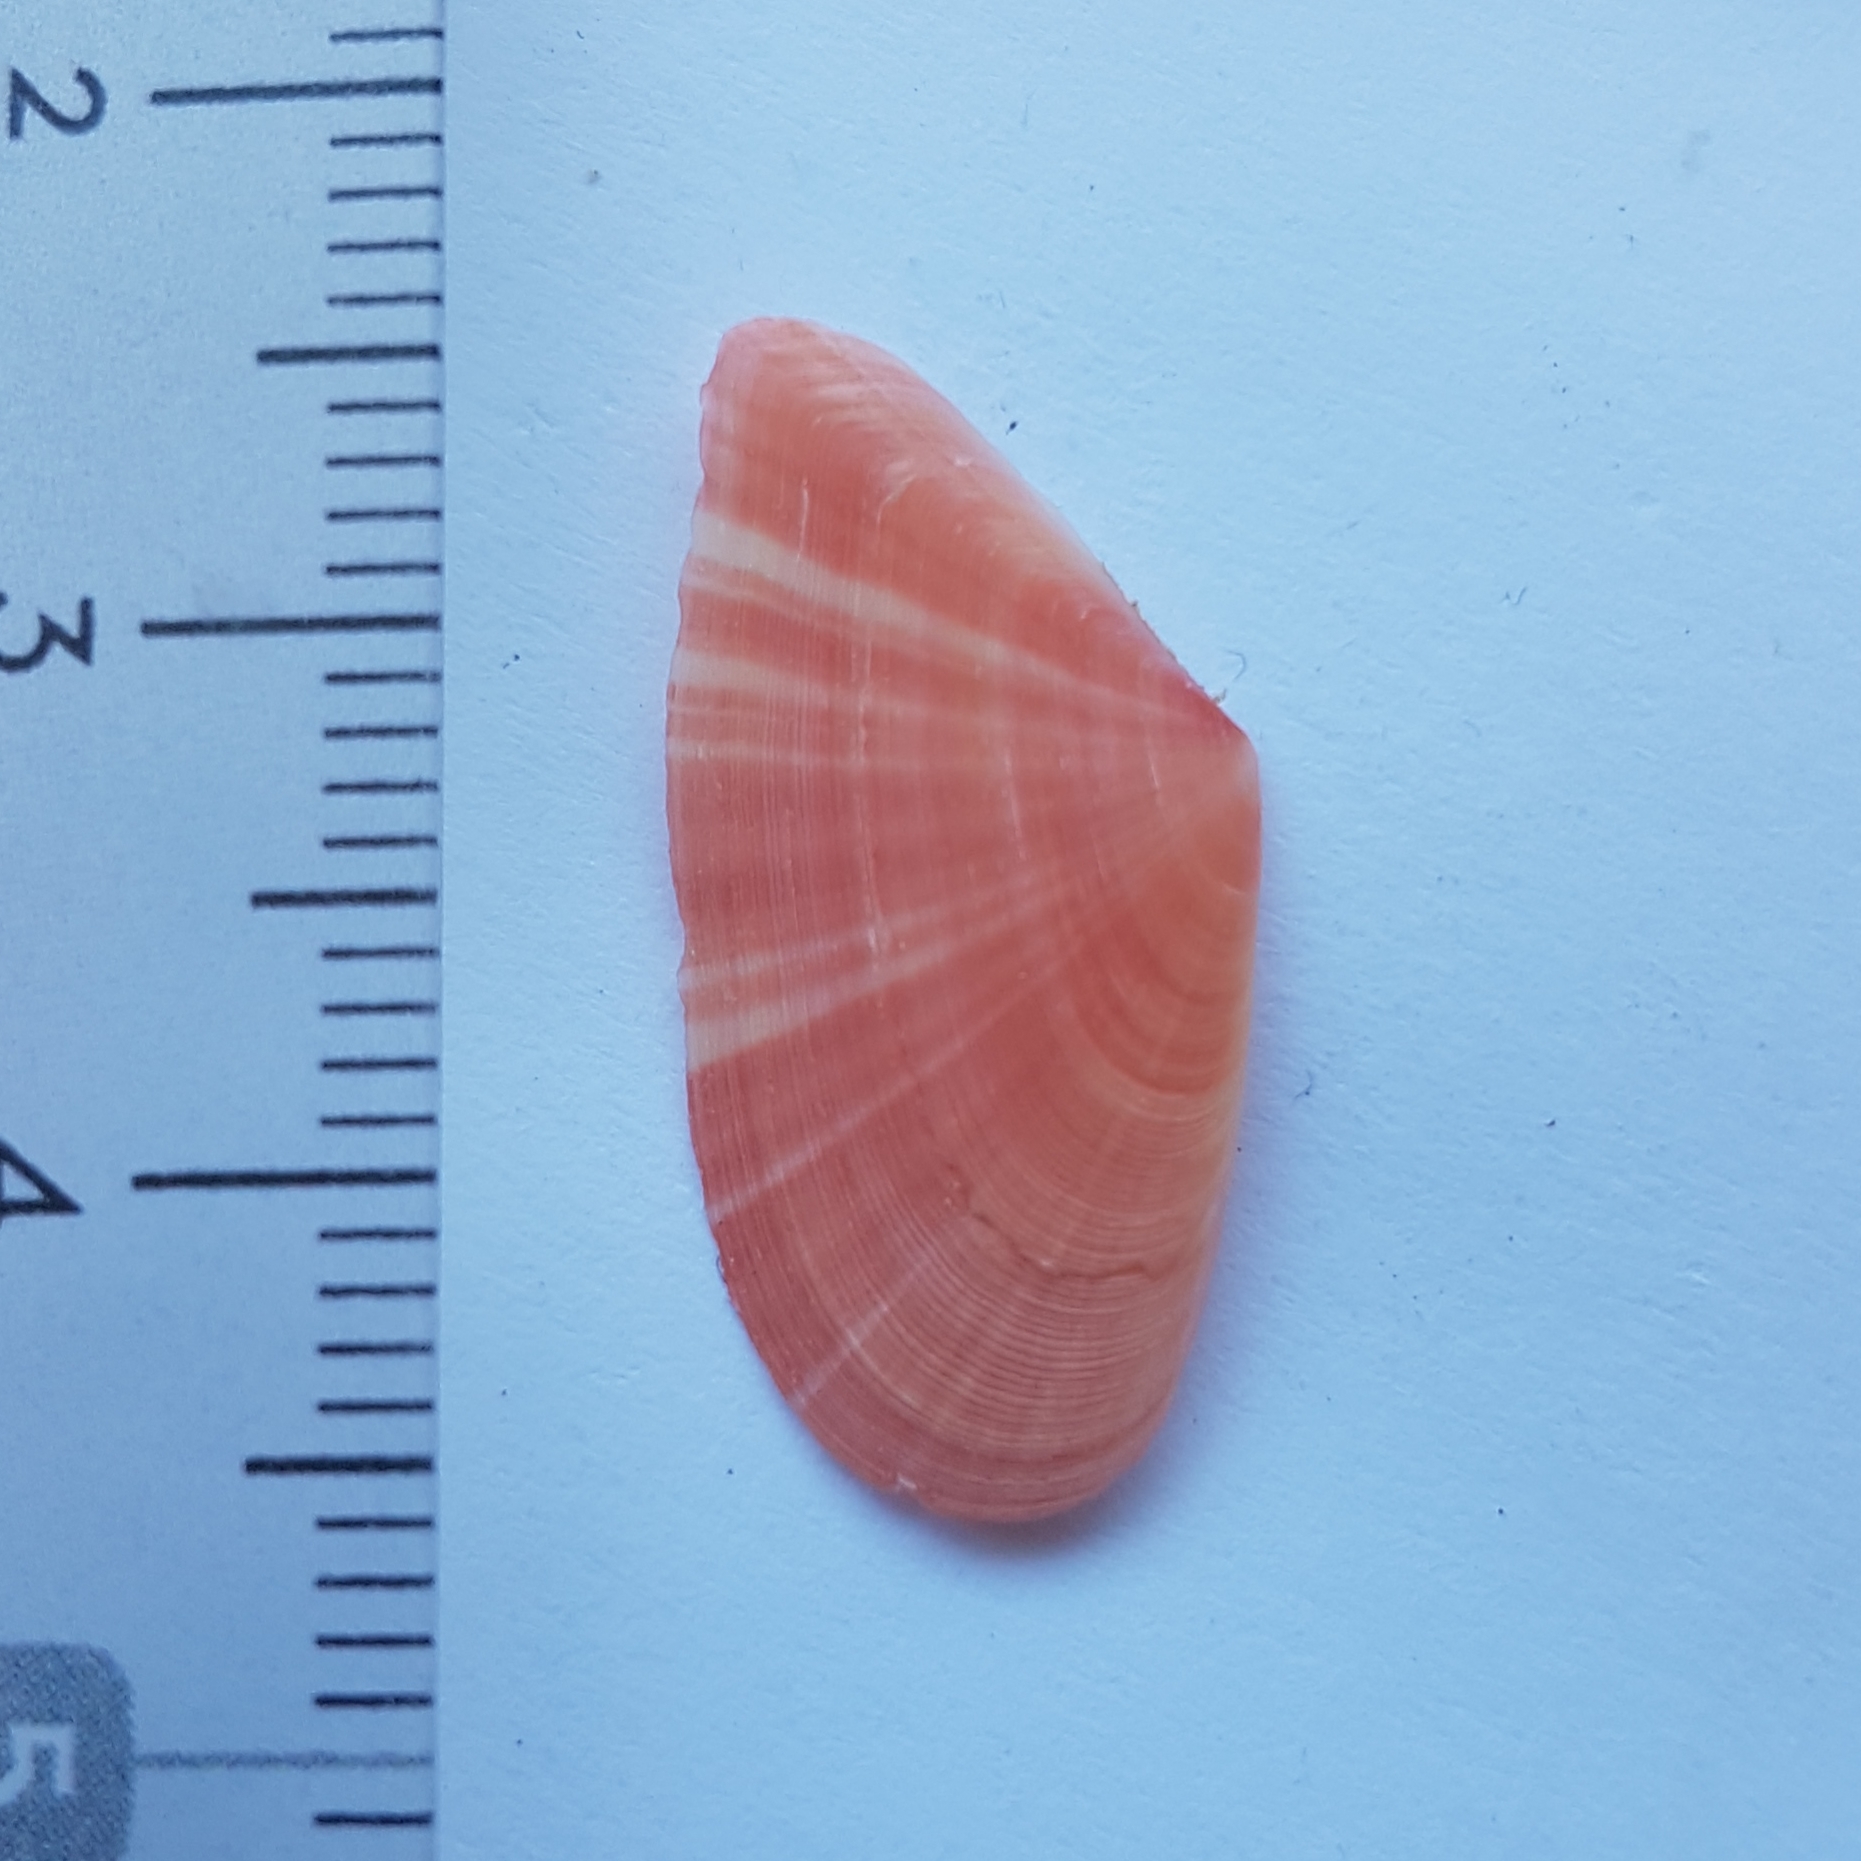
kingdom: Animalia
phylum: Mollusca
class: Bivalvia
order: Cardiida
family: Tellinidae
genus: Moerella
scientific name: Moerella pulchella
